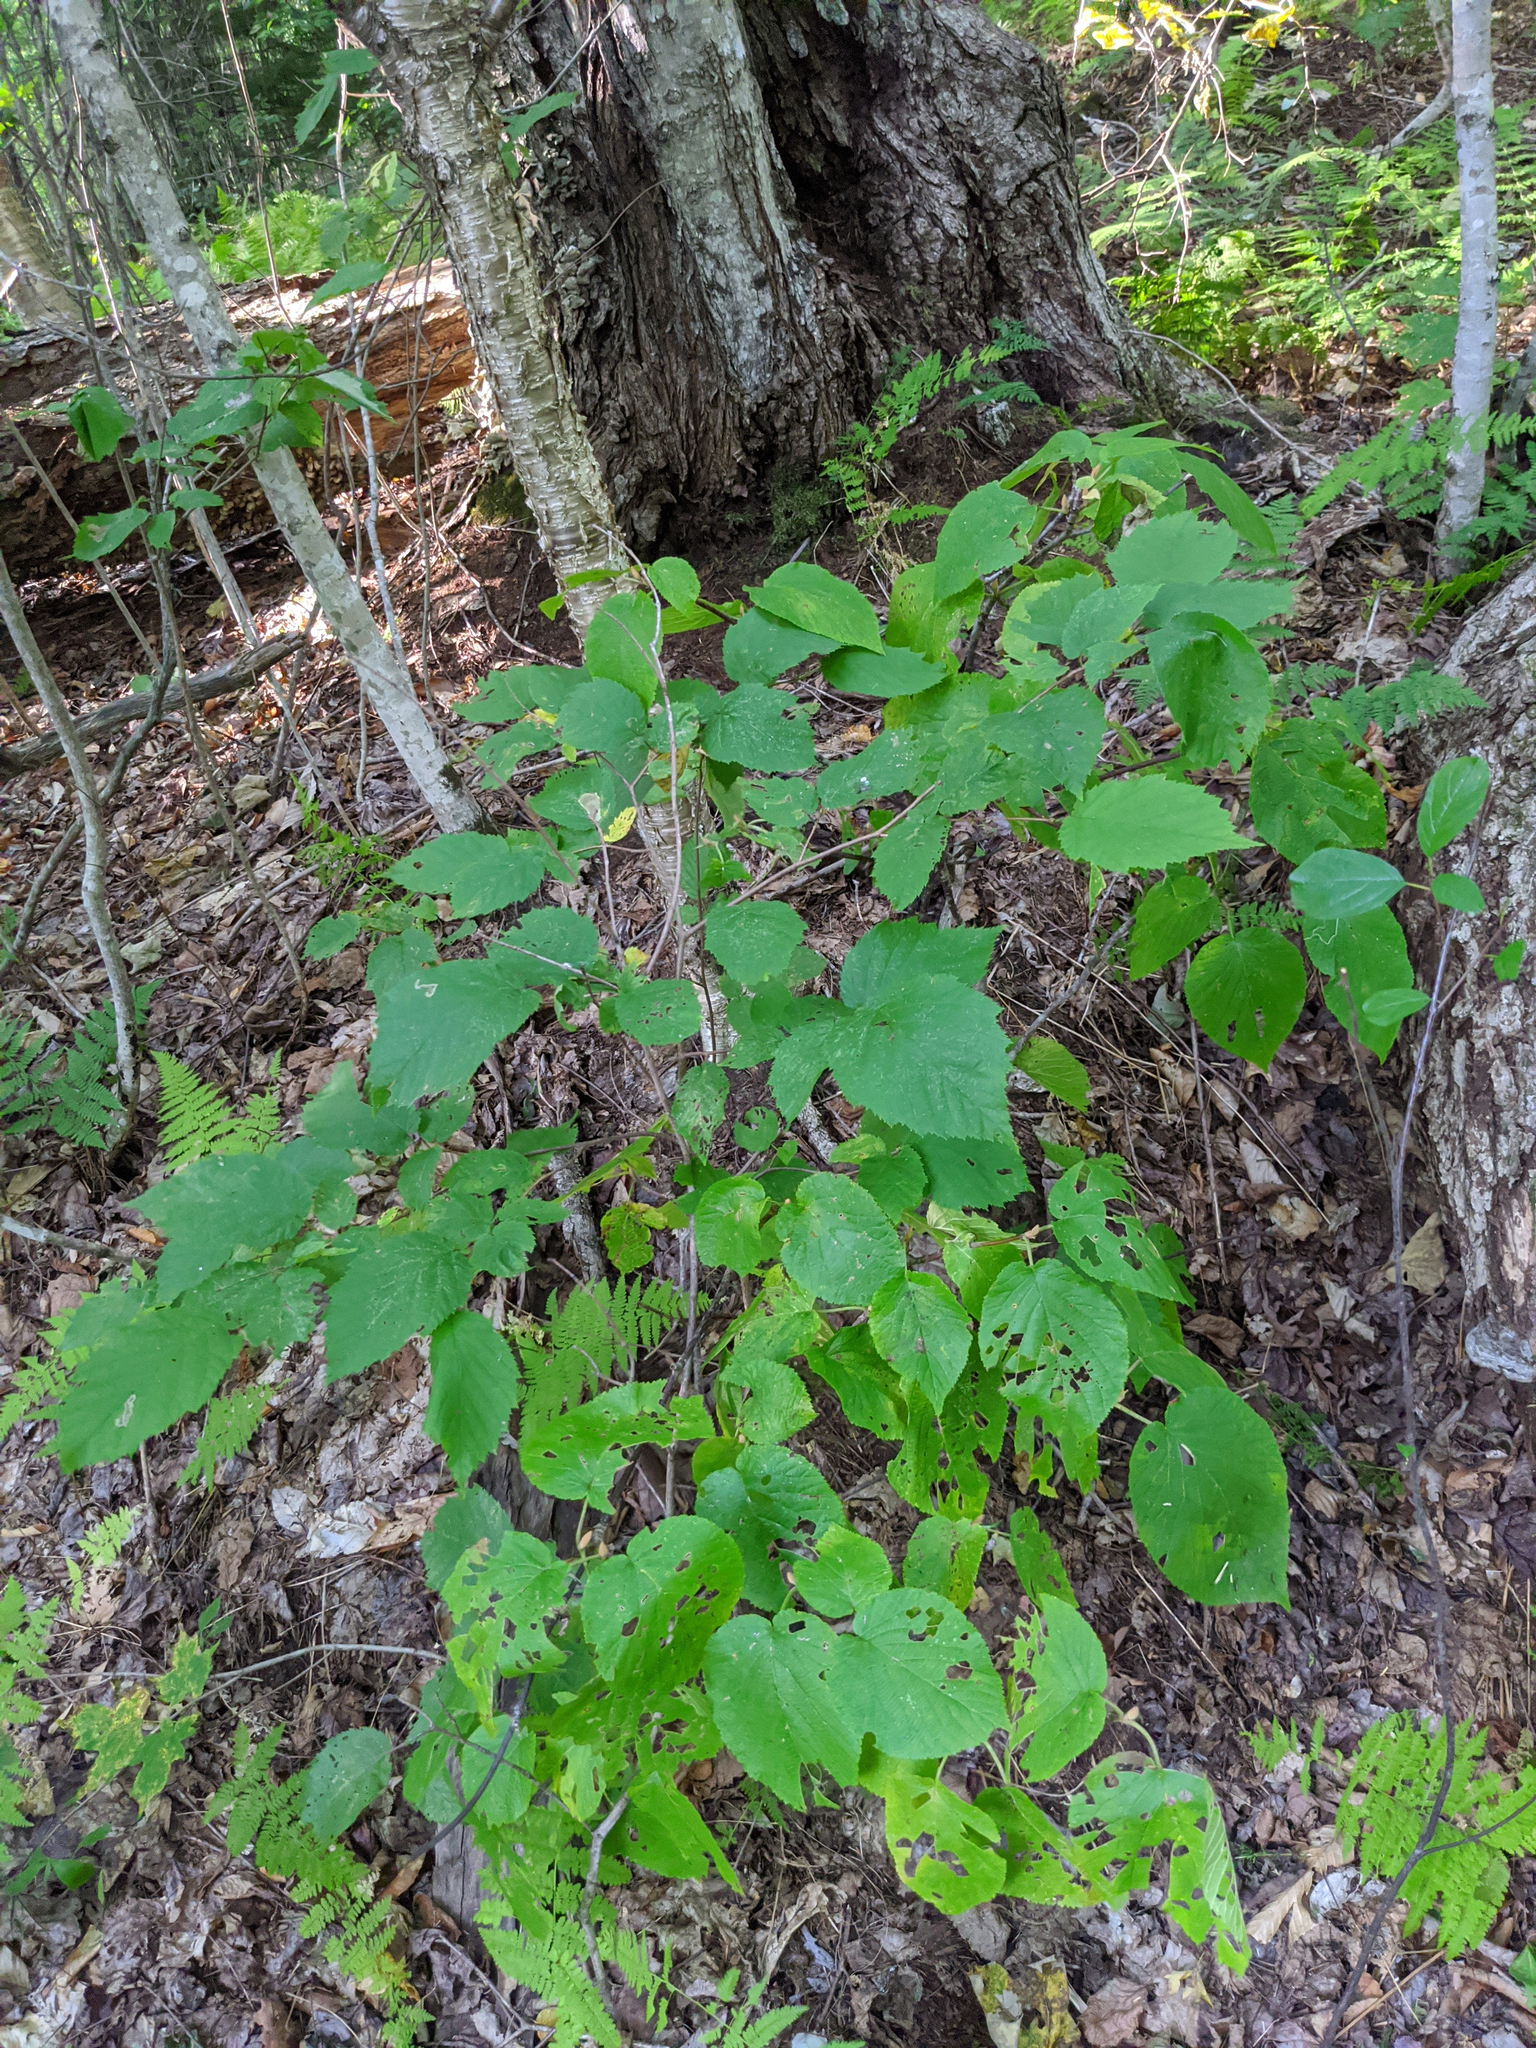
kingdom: Plantae
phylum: Tracheophyta
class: Magnoliopsida
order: Fagales
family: Betulaceae
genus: Corylus
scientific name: Corylus cornuta
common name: Beaked hazel
